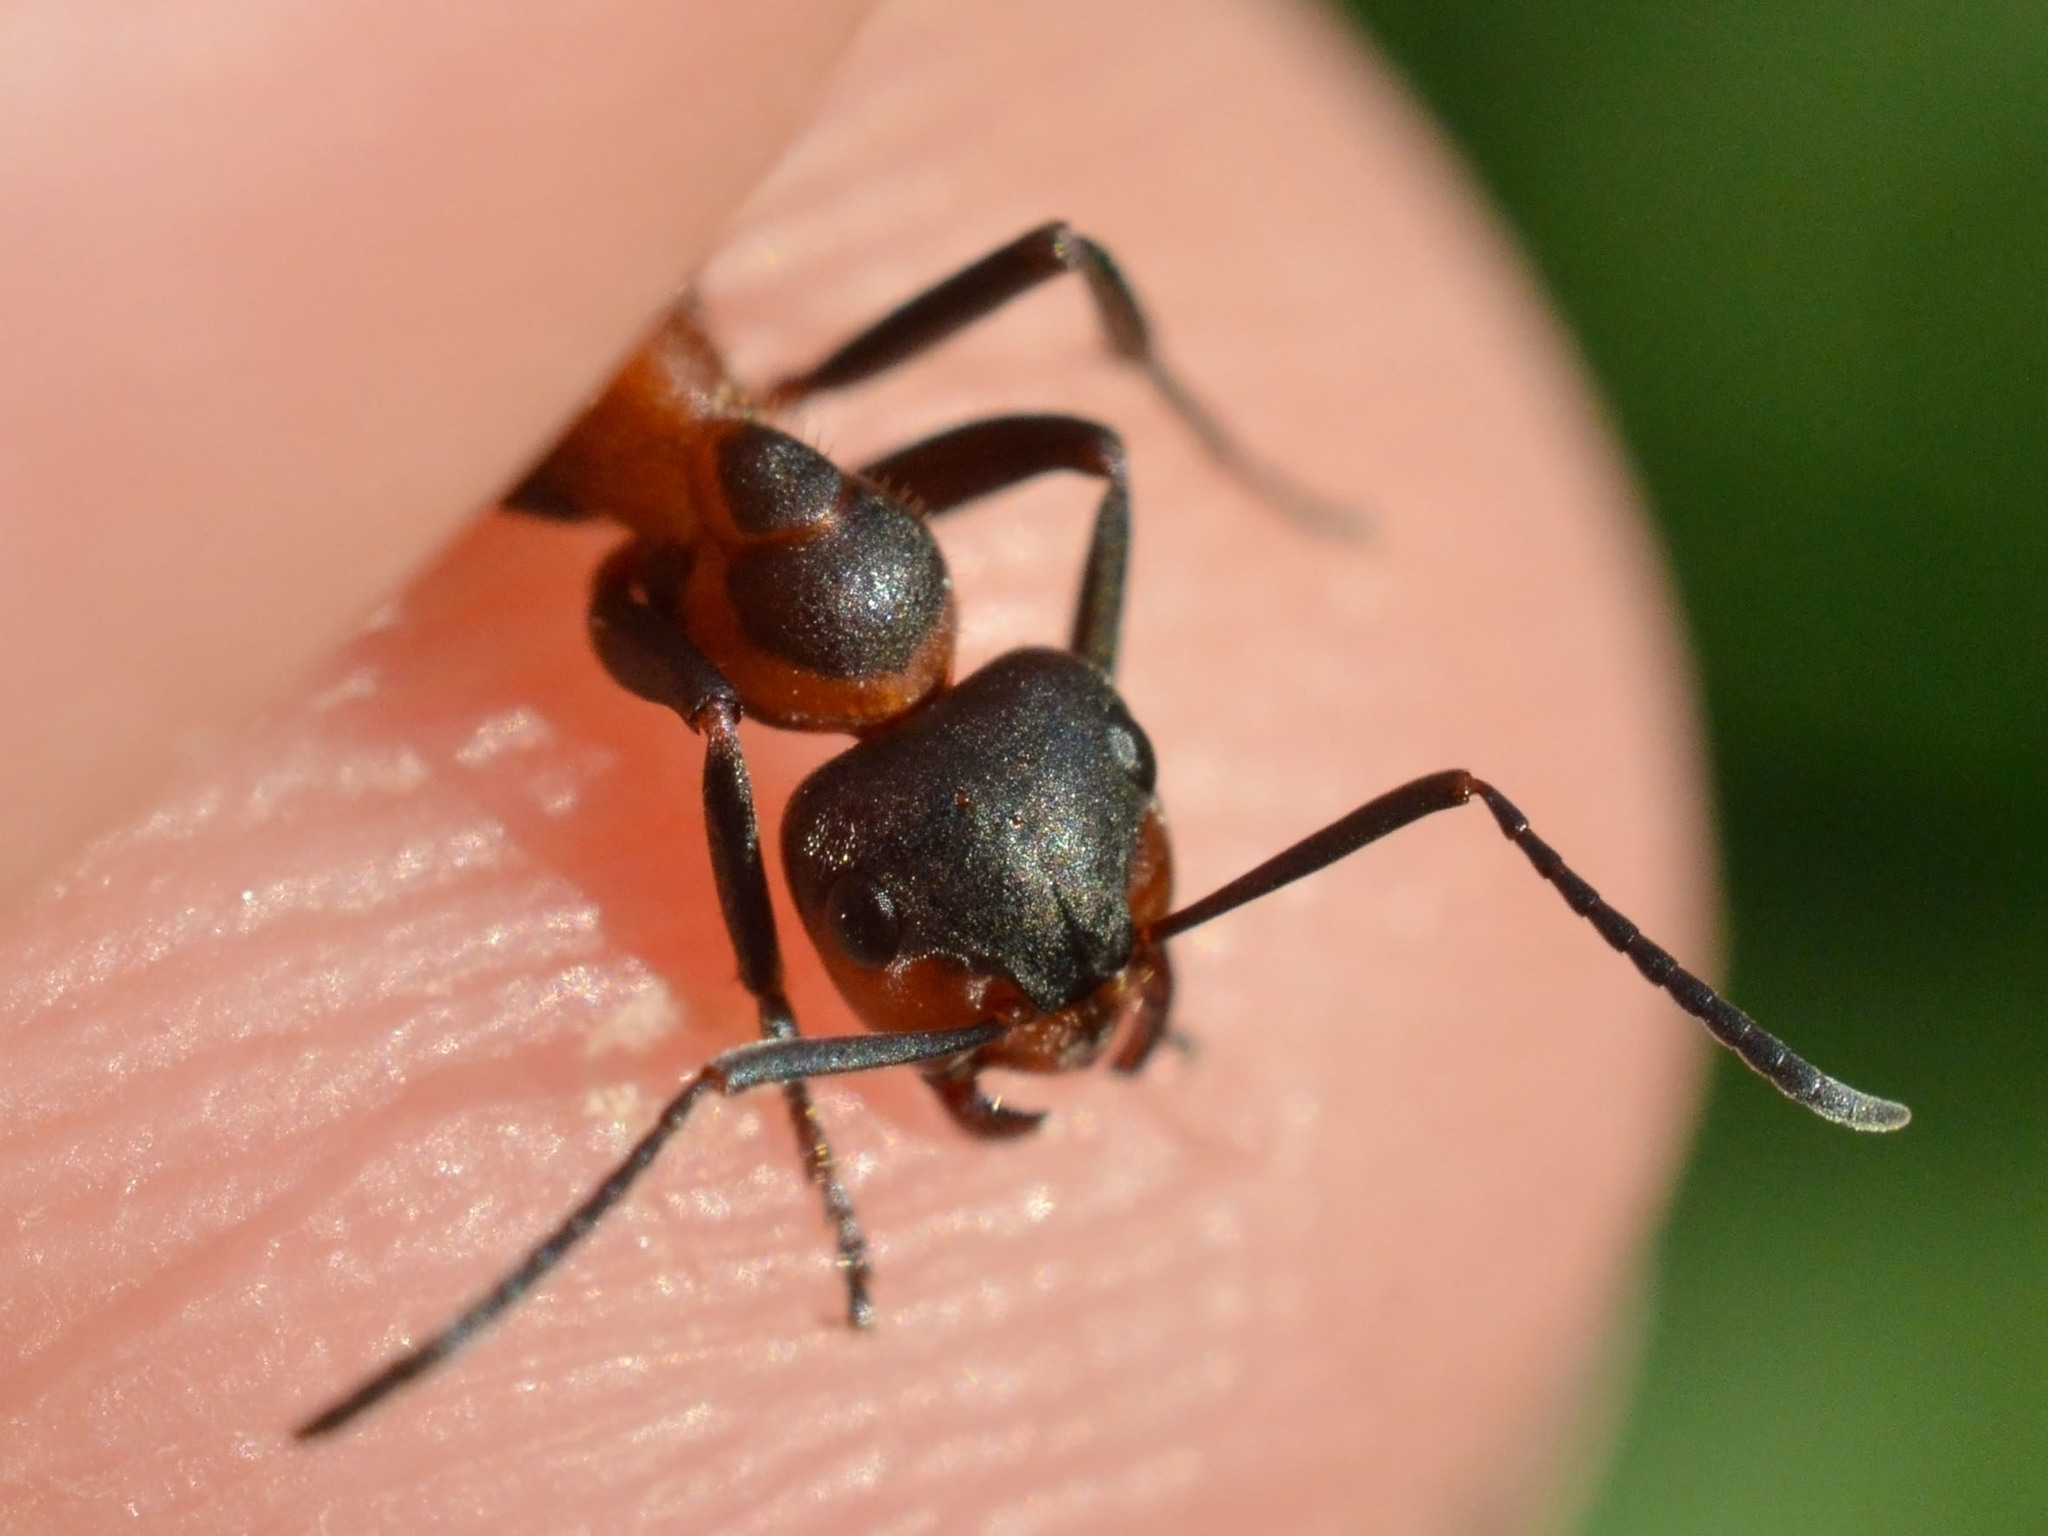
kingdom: Animalia
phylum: Arthropoda
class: Insecta
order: Hymenoptera
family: Formicidae
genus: Formica
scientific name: Formica pratensis
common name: European red wood ant
